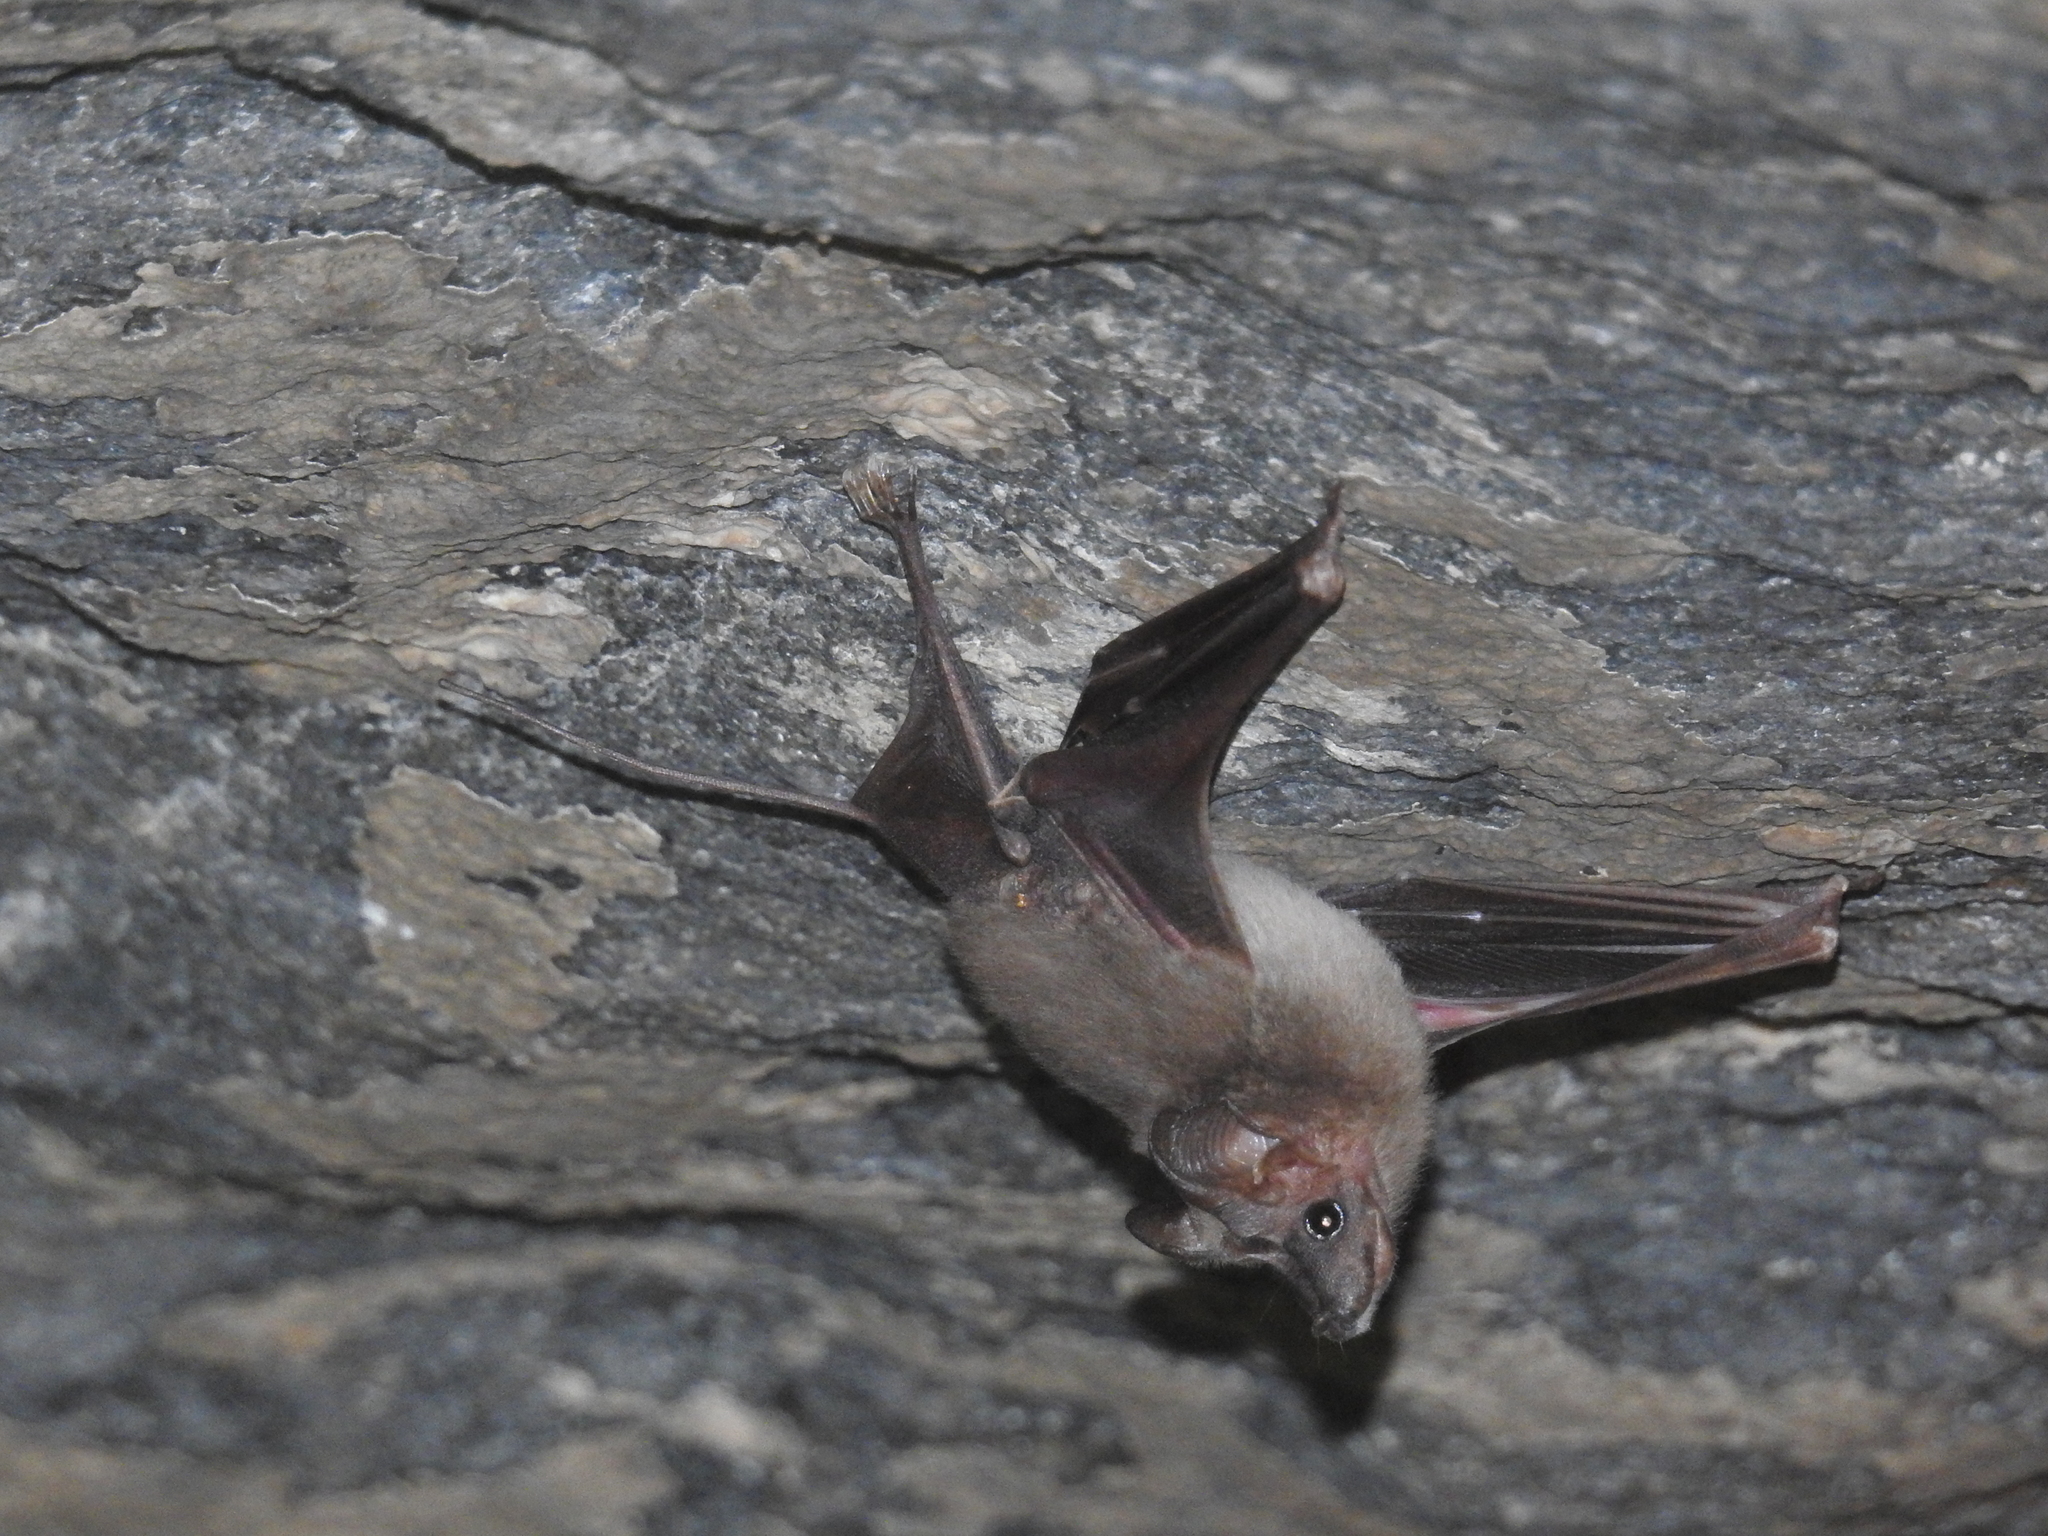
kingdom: Animalia
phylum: Chordata
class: Mammalia
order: Chiroptera
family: Rhinopomatidae
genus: Rhinopoma
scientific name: Rhinopoma hardwickii
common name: Lesser mouse-tailed bat
